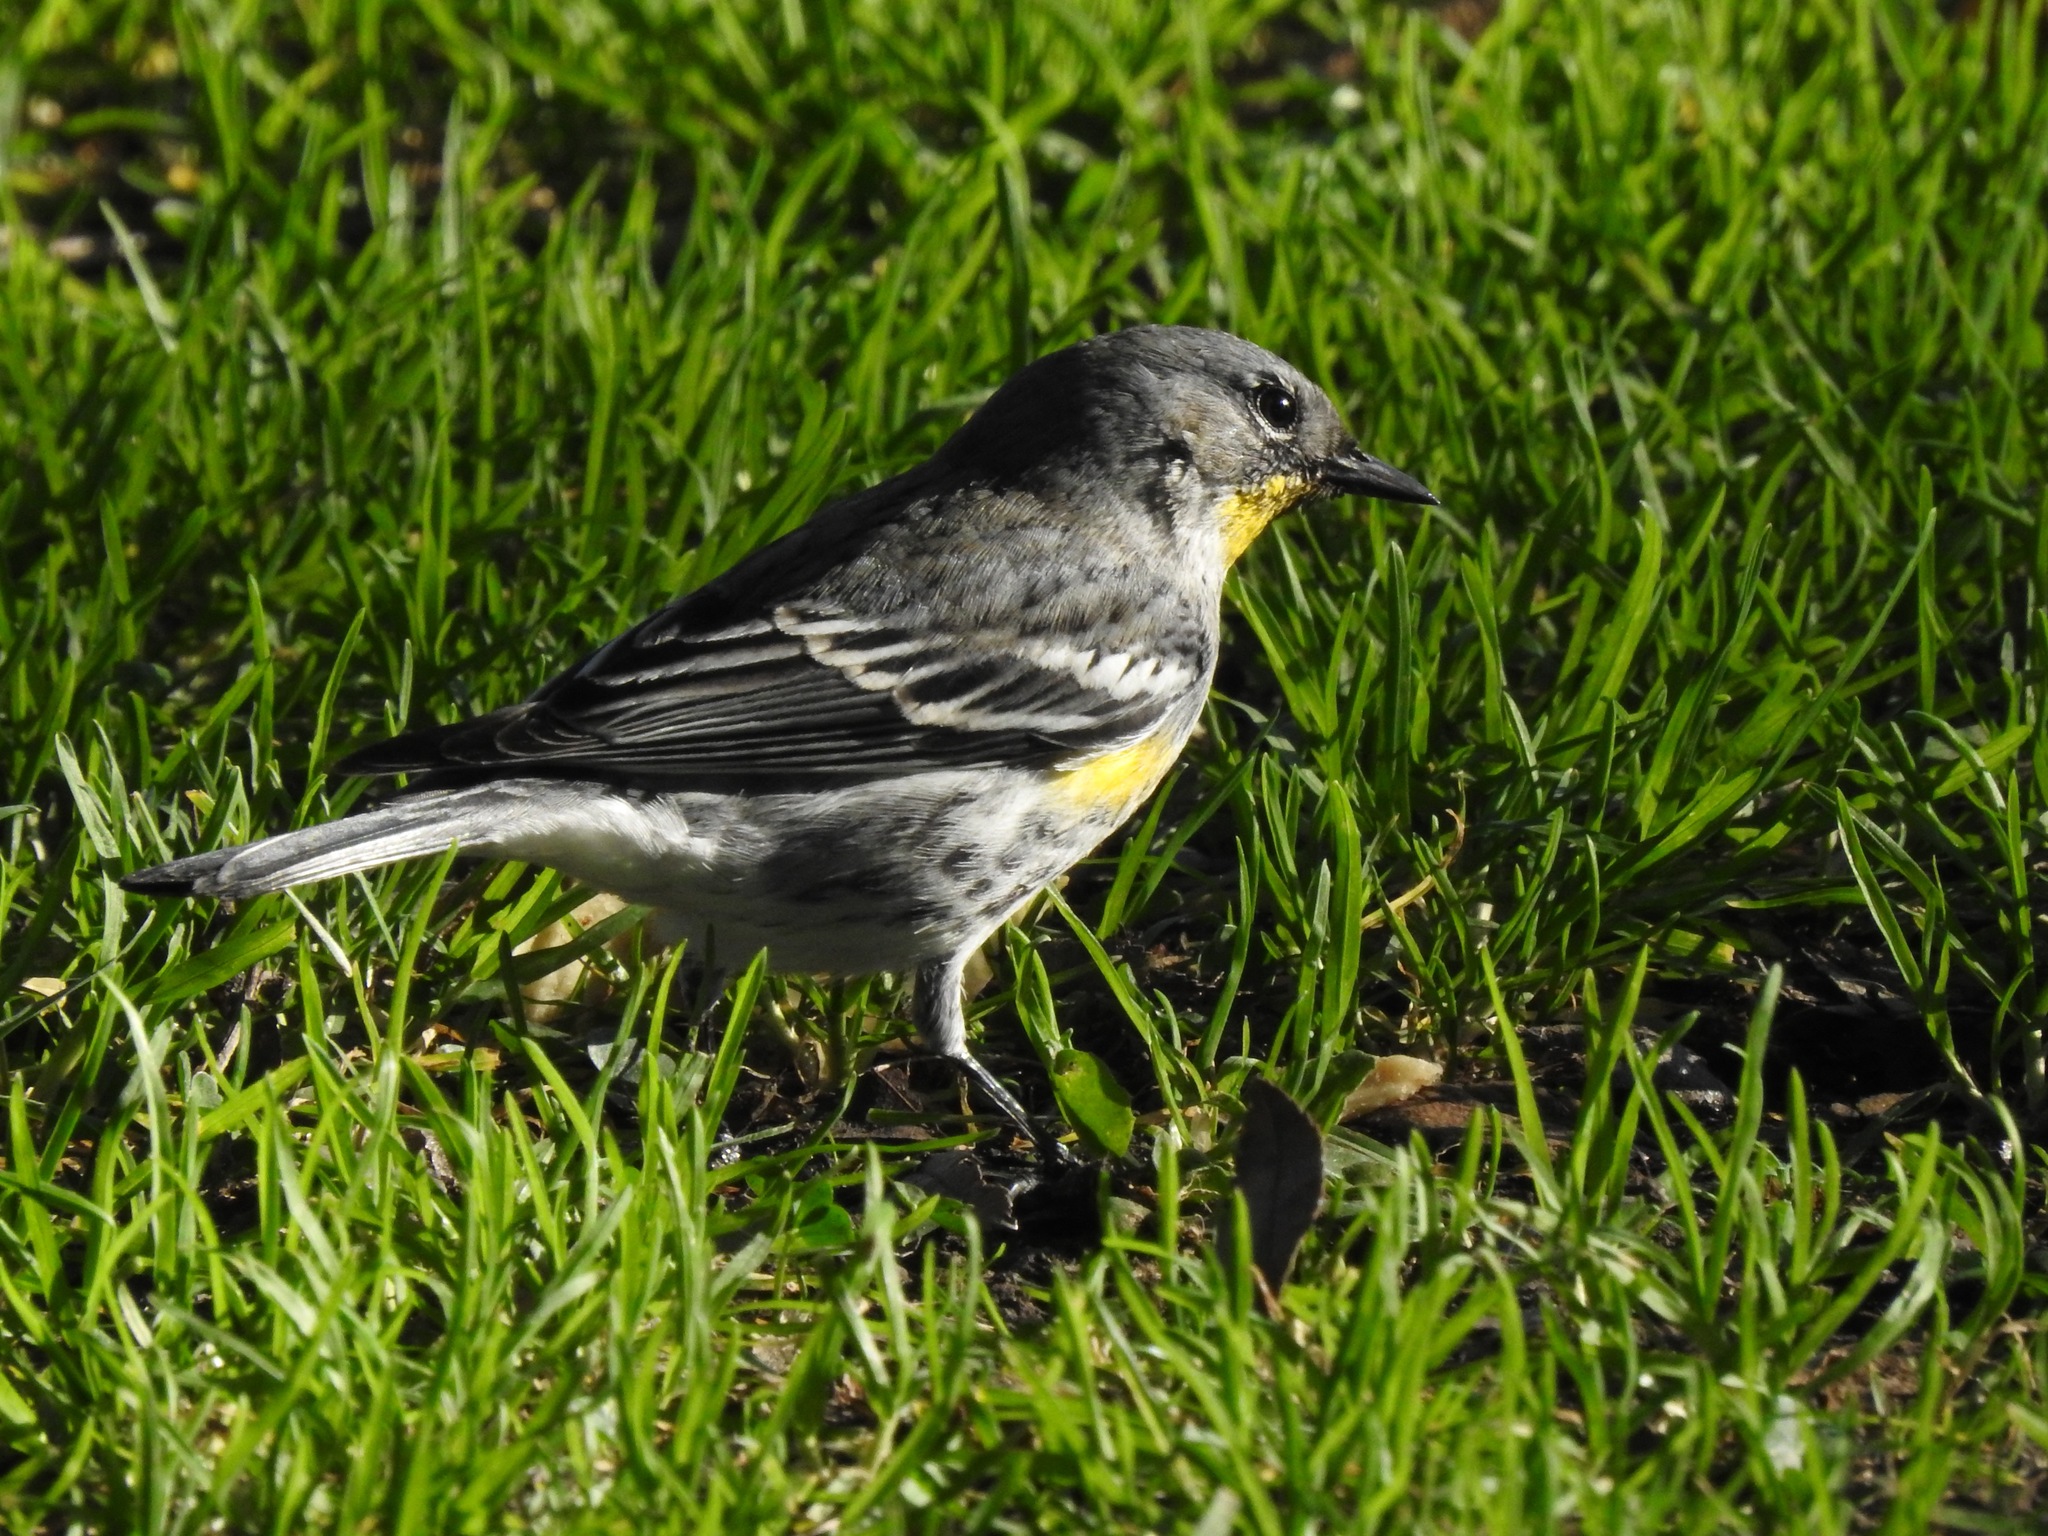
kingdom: Animalia
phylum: Chordata
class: Aves
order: Passeriformes
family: Parulidae
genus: Setophaga
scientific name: Setophaga coronata
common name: Myrtle warbler
